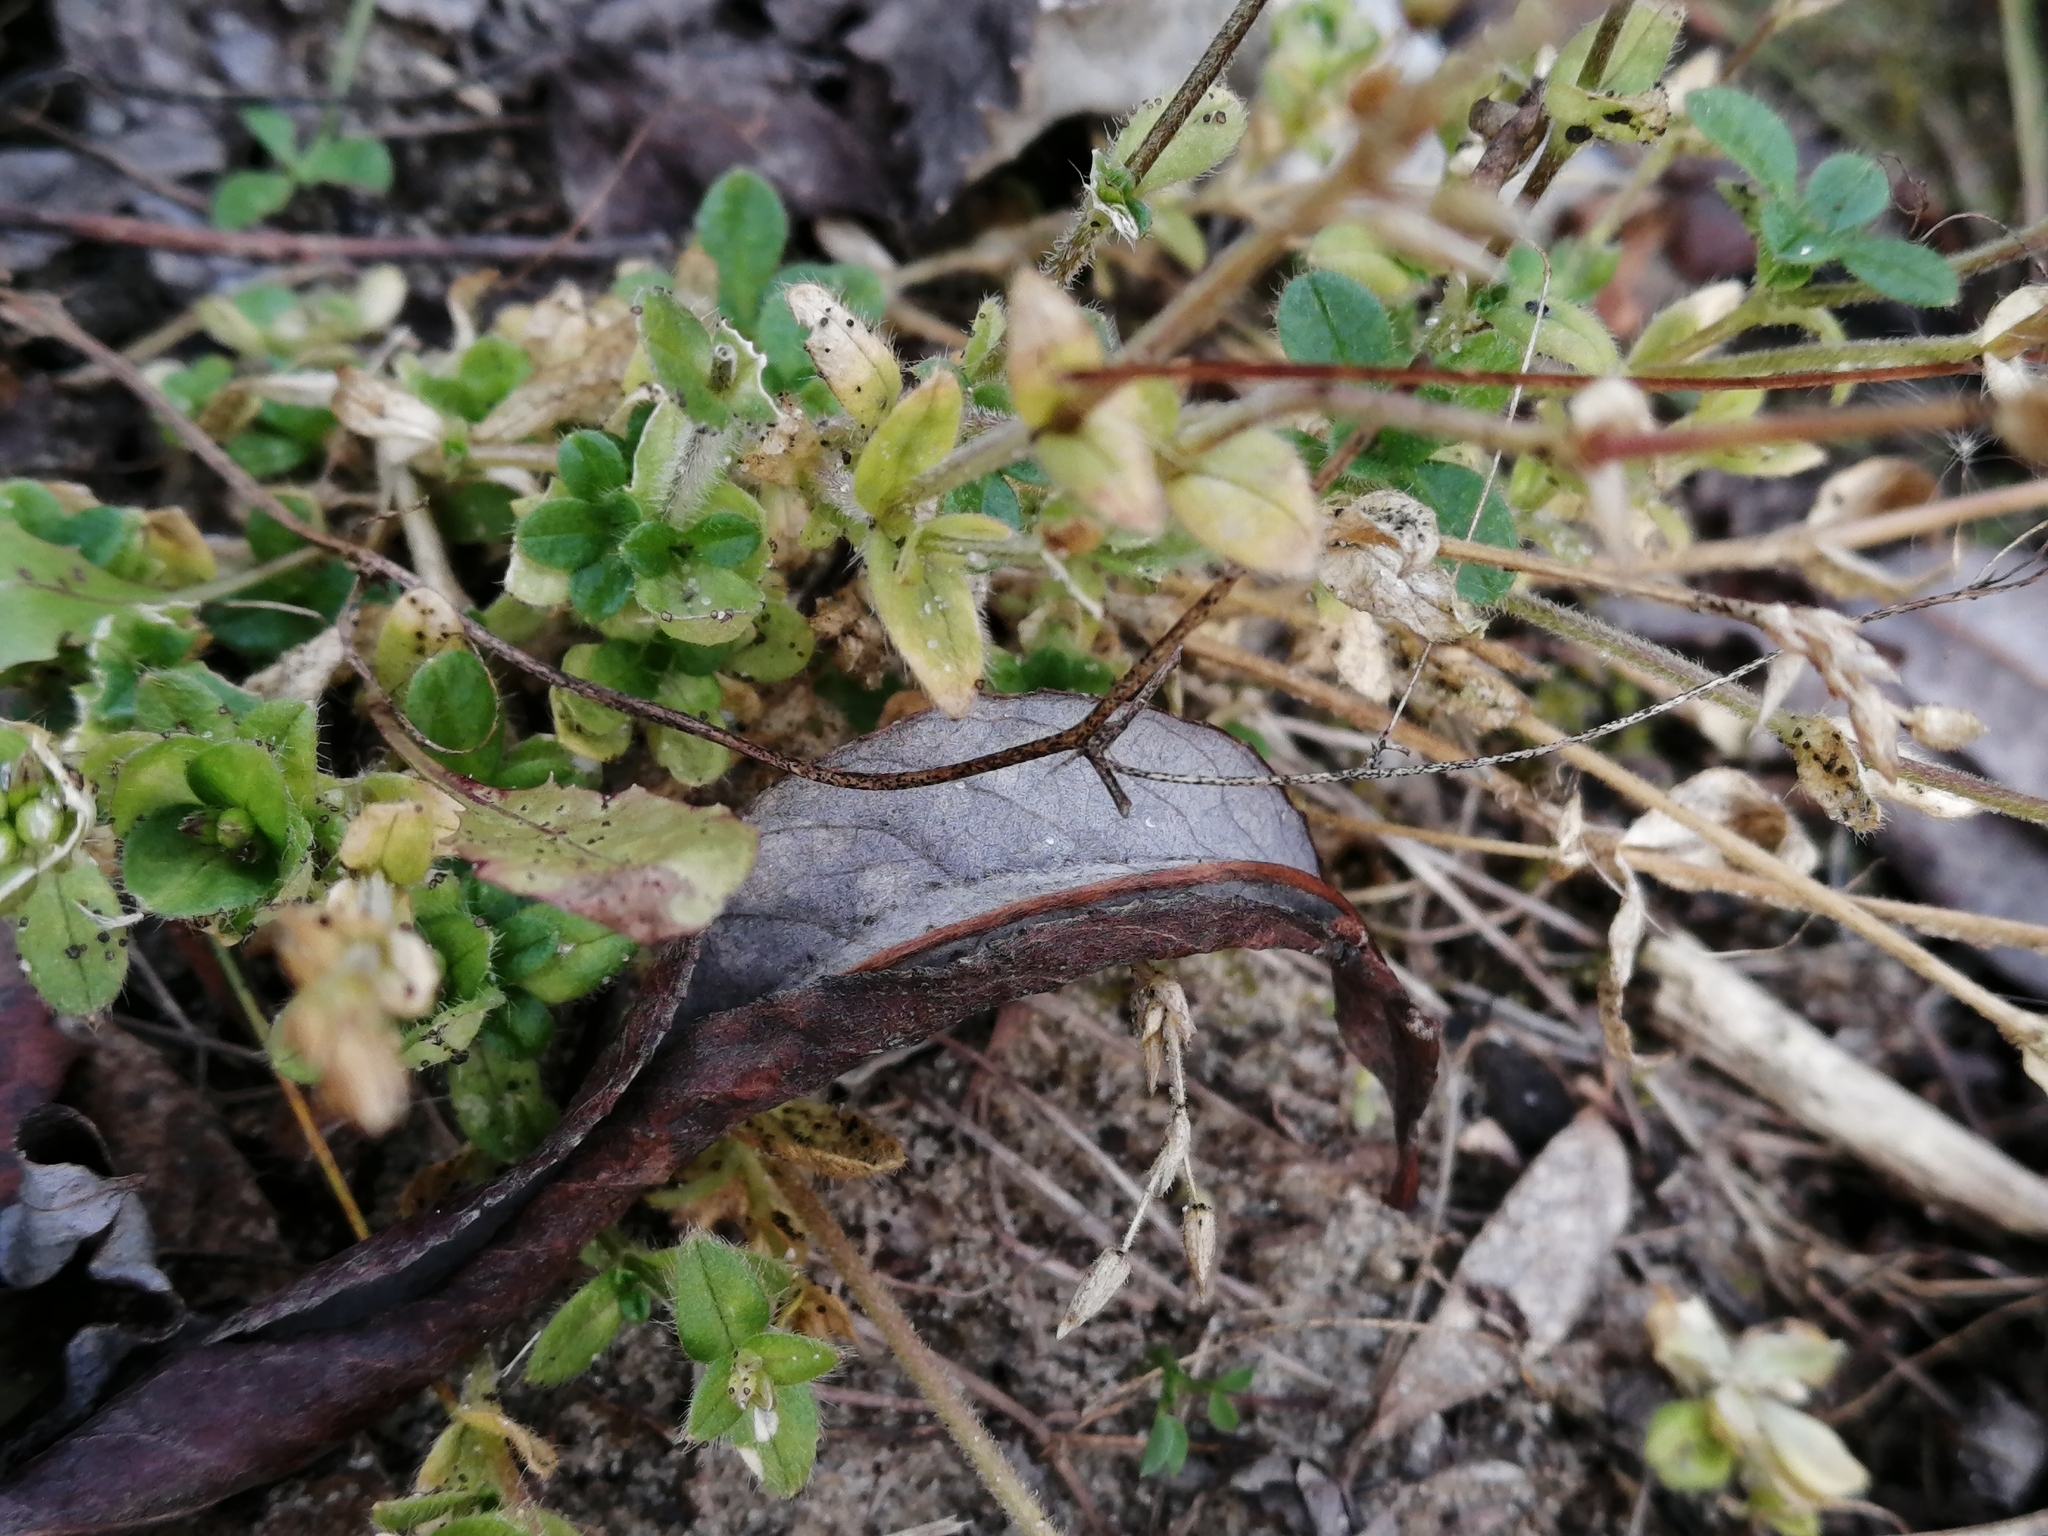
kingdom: Plantae
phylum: Tracheophyta
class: Magnoliopsida
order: Caryophyllales
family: Caryophyllaceae
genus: Cerastium
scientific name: Cerastium holosteoides
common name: Big chickweed
